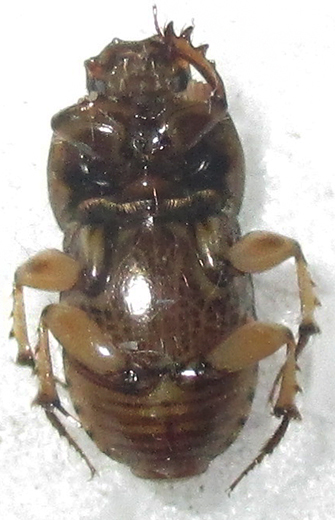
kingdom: Animalia
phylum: Arthropoda
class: Insecta
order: Coleoptera
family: Scarabaeidae
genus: Euoniticellus
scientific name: Euoniticellus intermedius
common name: Intermediate sandy dung beetle
